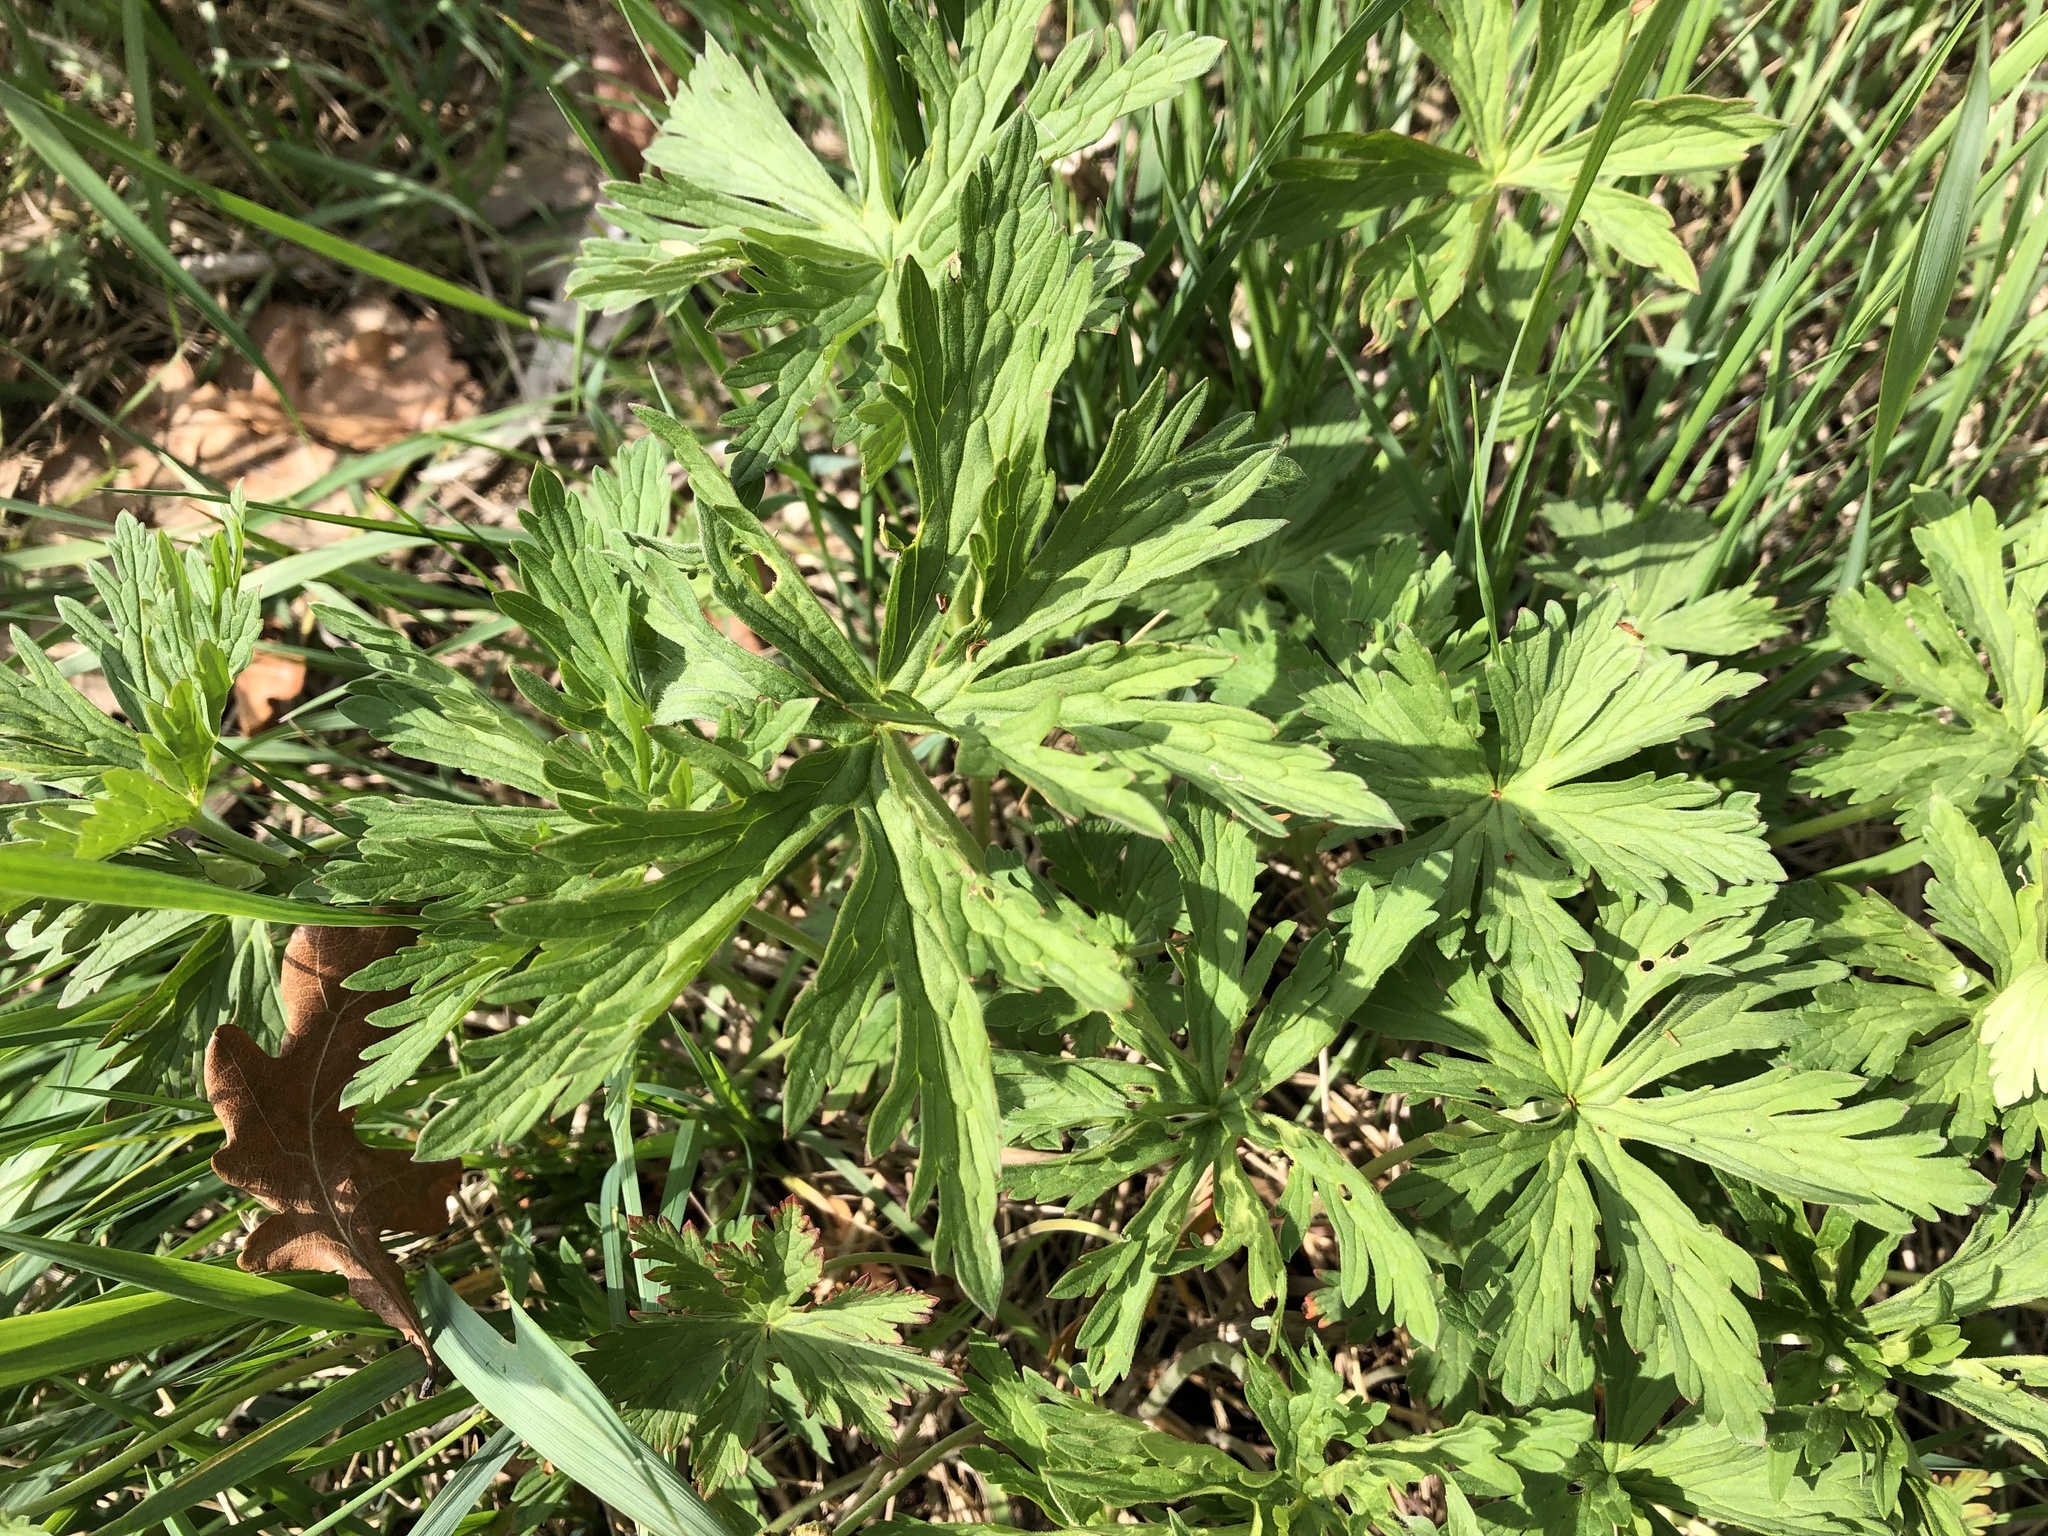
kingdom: Plantae
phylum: Tracheophyta
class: Magnoliopsida
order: Geraniales
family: Geraniaceae
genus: Geranium
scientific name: Geranium pratense
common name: Meadow crane's-bill
